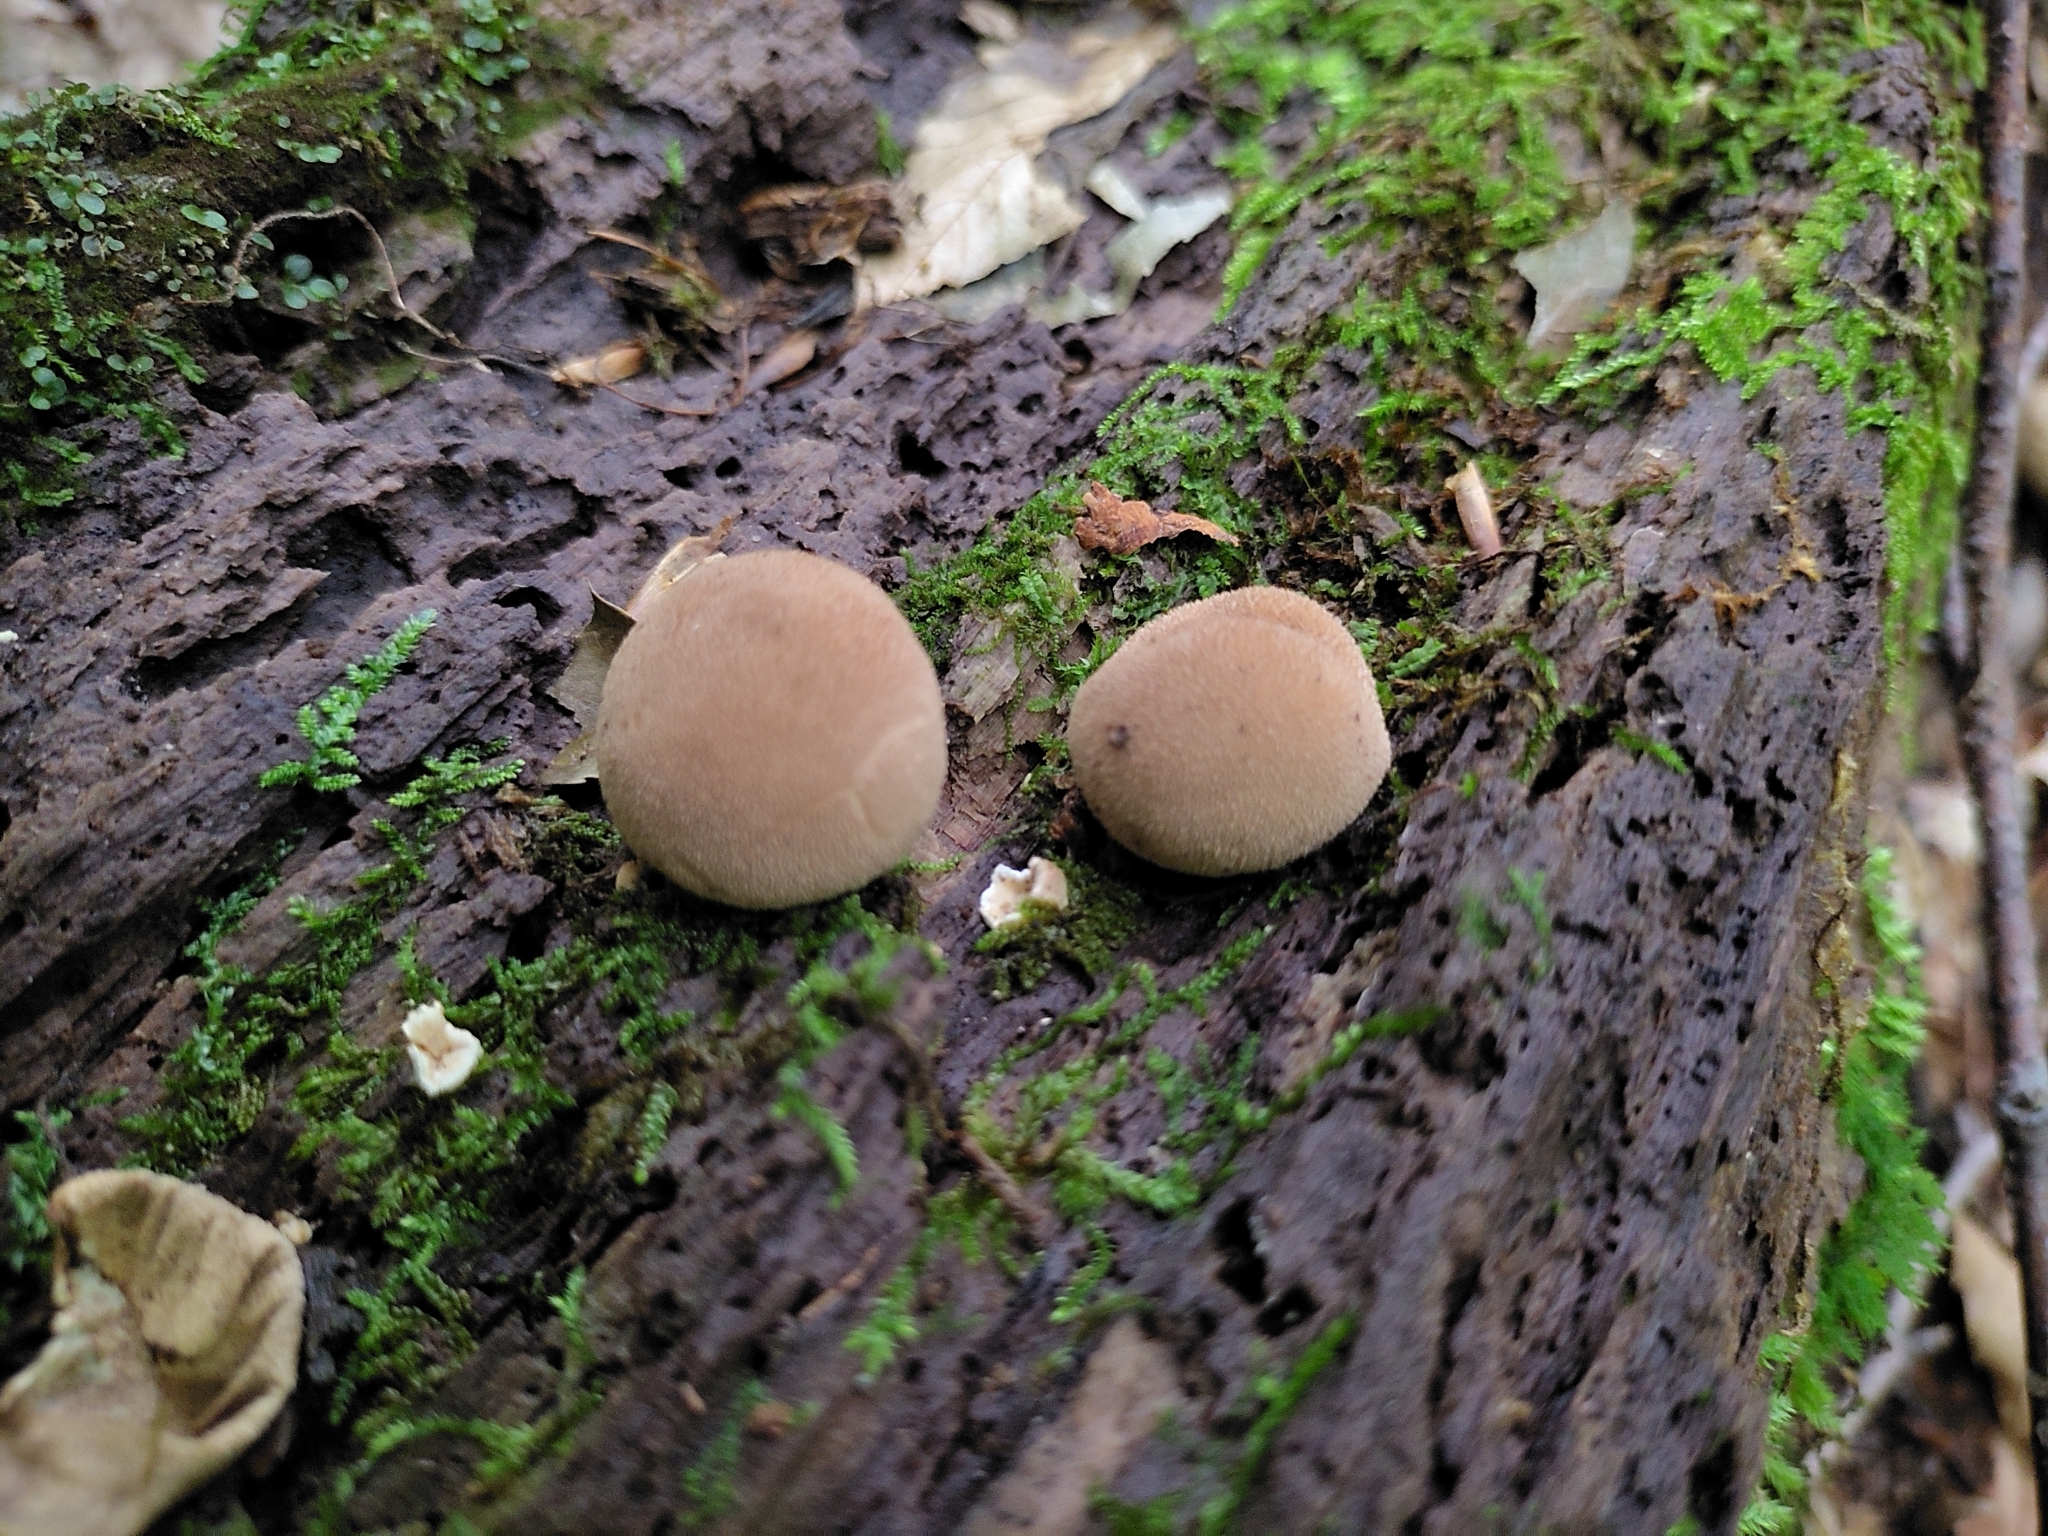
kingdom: Fungi
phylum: Basidiomycota
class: Agaricomycetes
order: Agaricales
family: Lycoperdaceae
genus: Lycoperdon
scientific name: Lycoperdon subincarnatum
